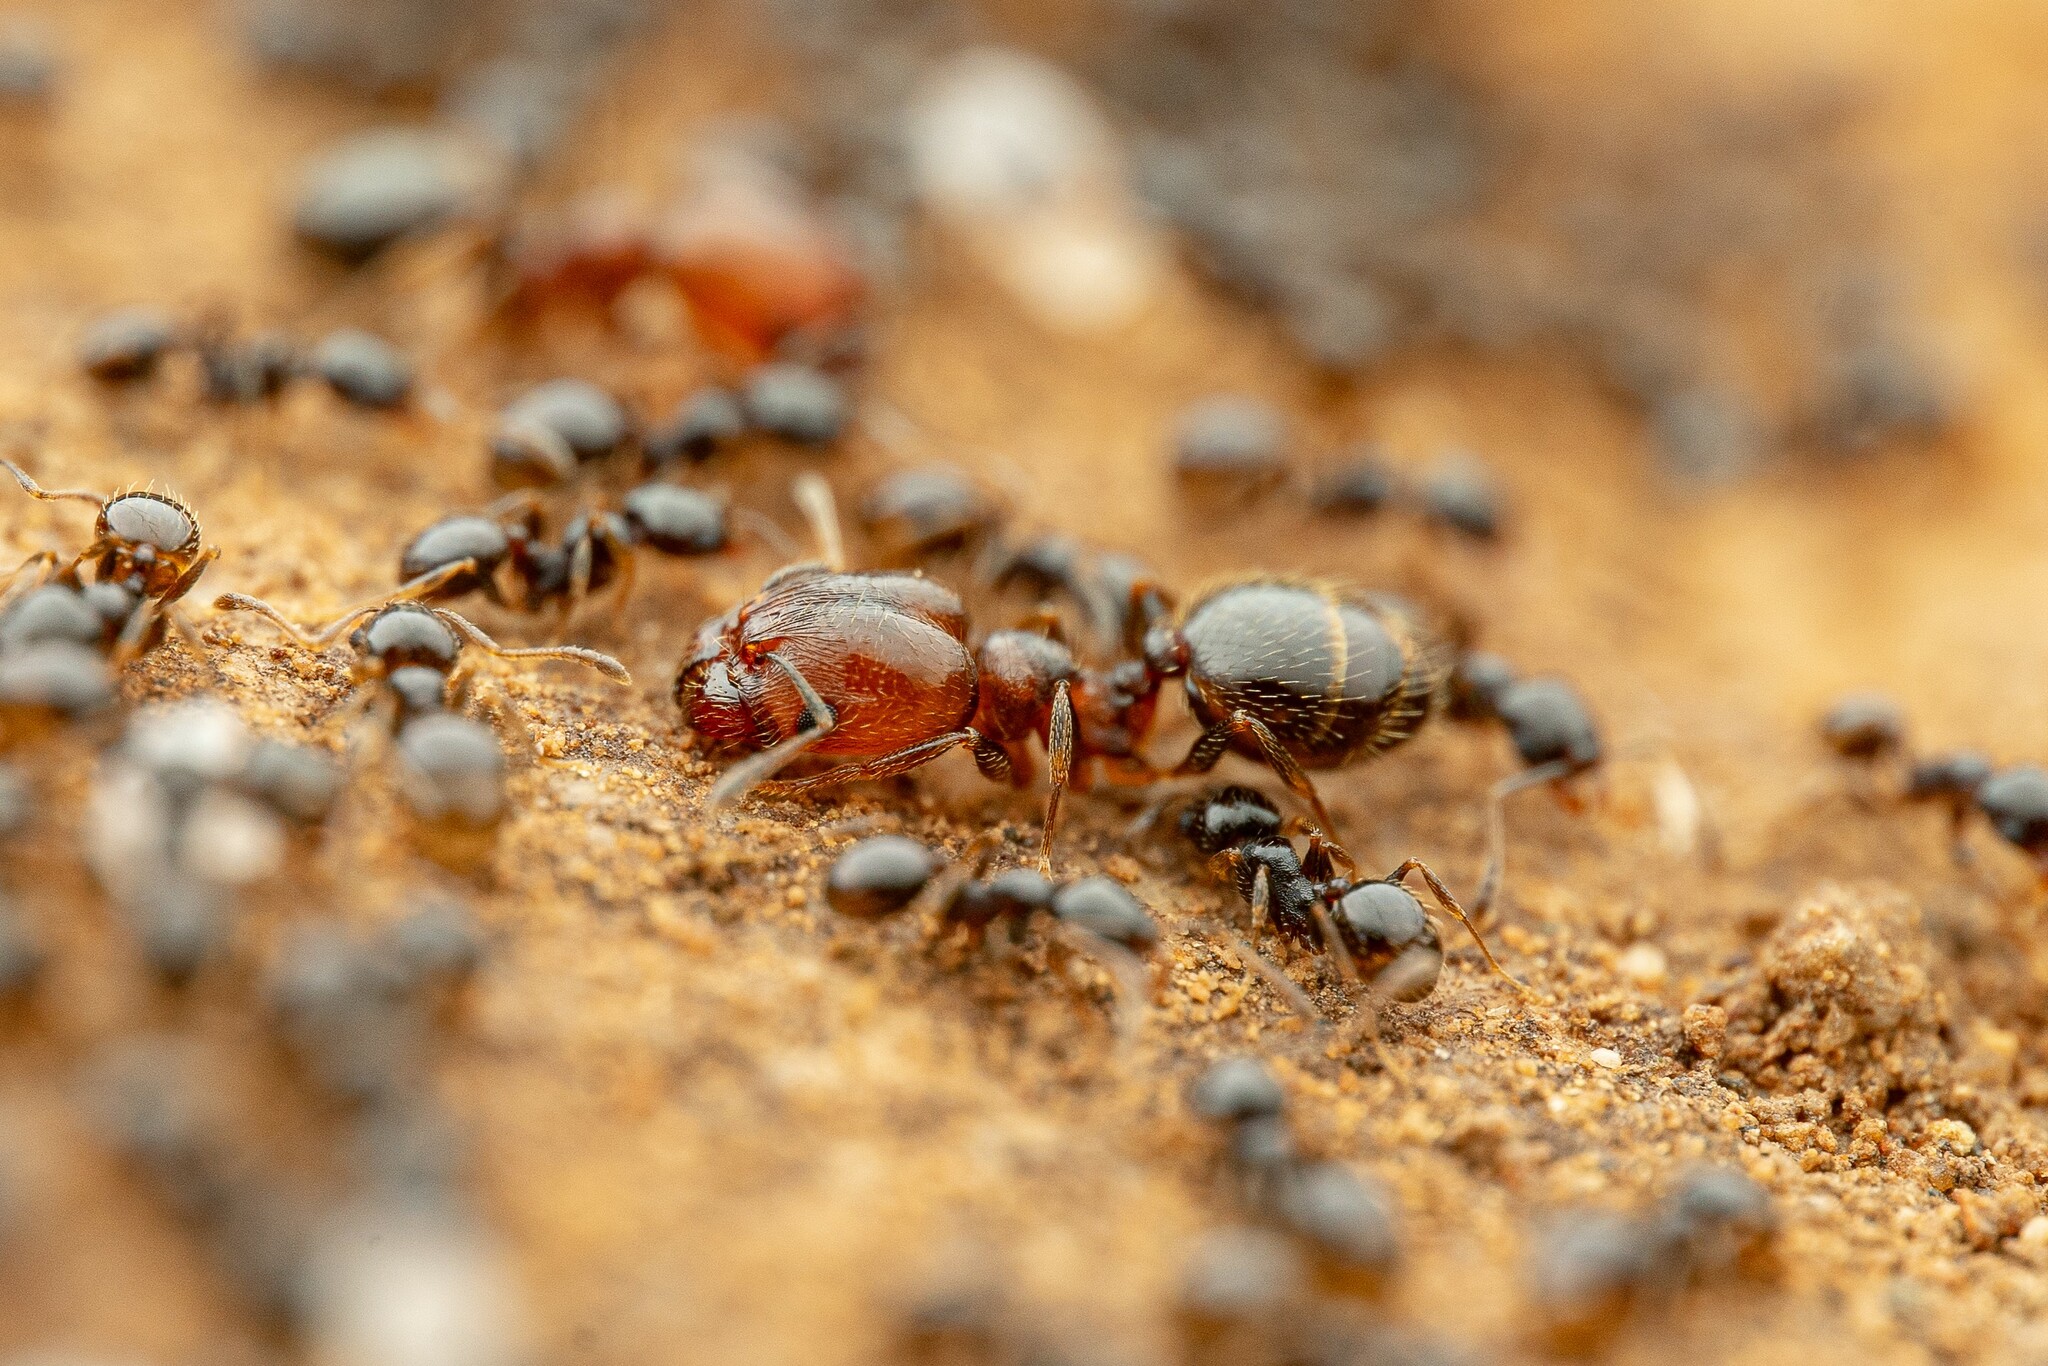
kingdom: Animalia
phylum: Arthropoda
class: Insecta
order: Hymenoptera
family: Formicidae
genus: Pheidole
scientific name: Pheidole rugulosa
